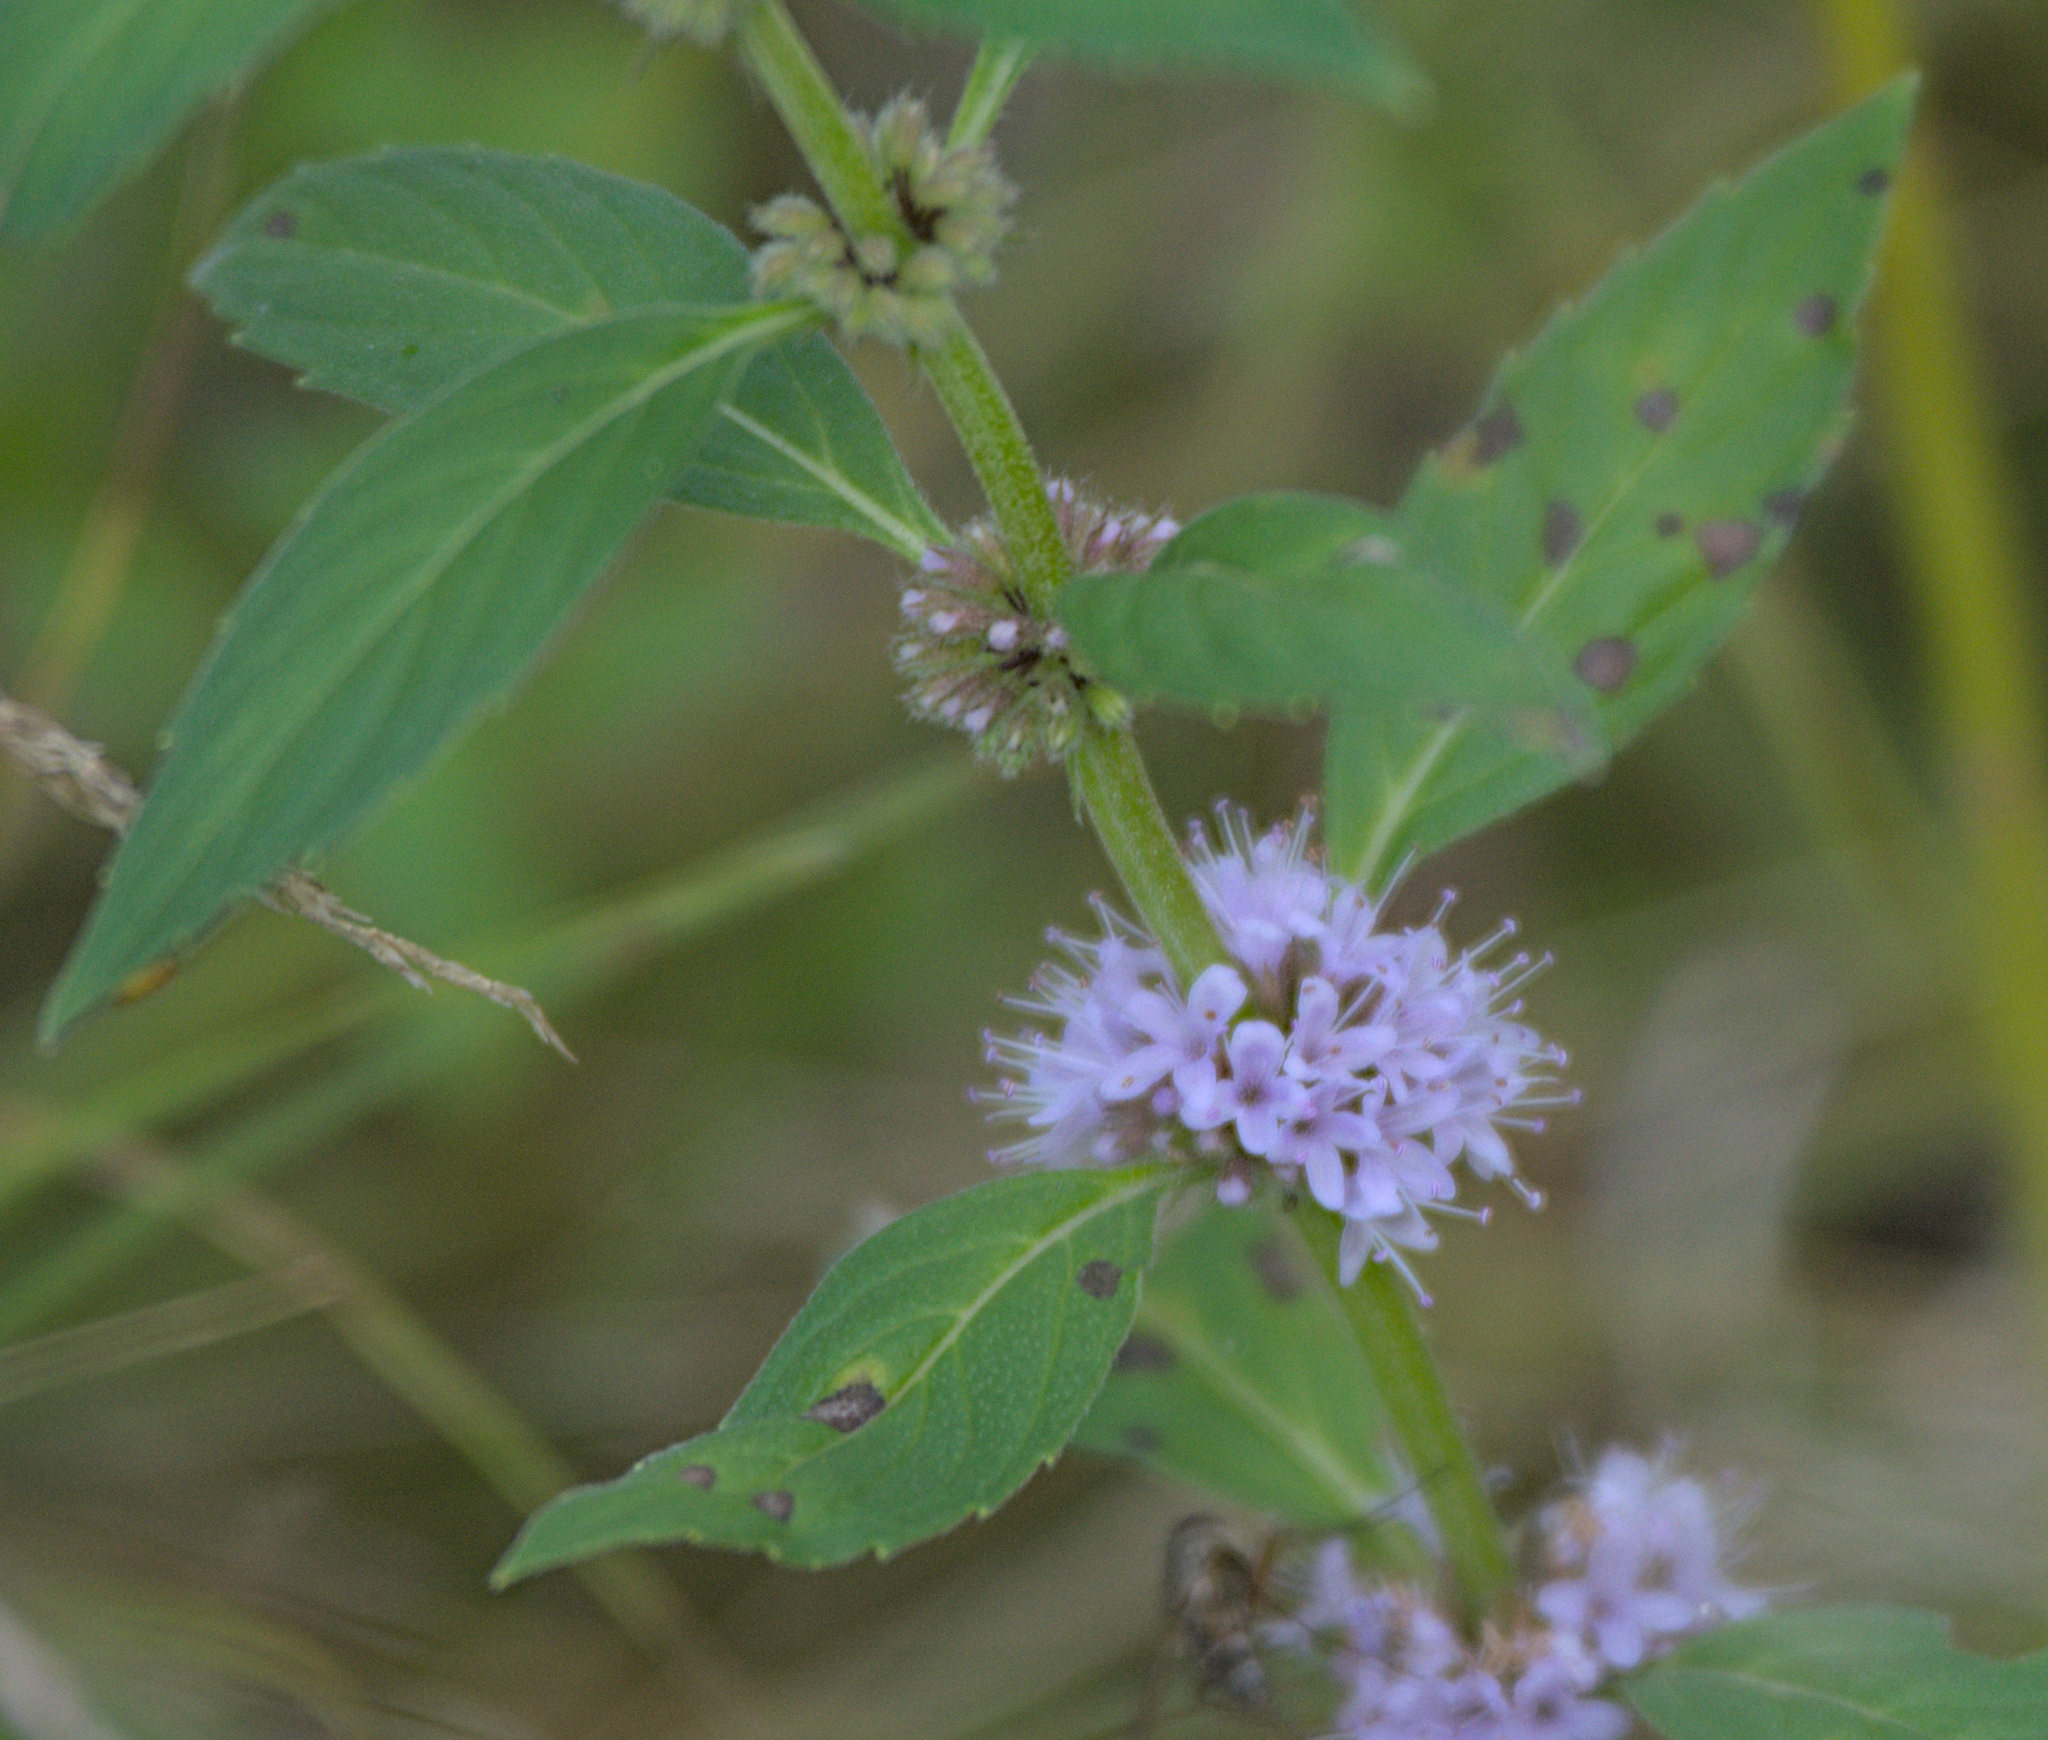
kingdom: Plantae
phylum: Tracheophyta
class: Magnoliopsida
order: Lamiales
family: Lamiaceae
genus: Mentha
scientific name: Mentha arvensis
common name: Corn mint
